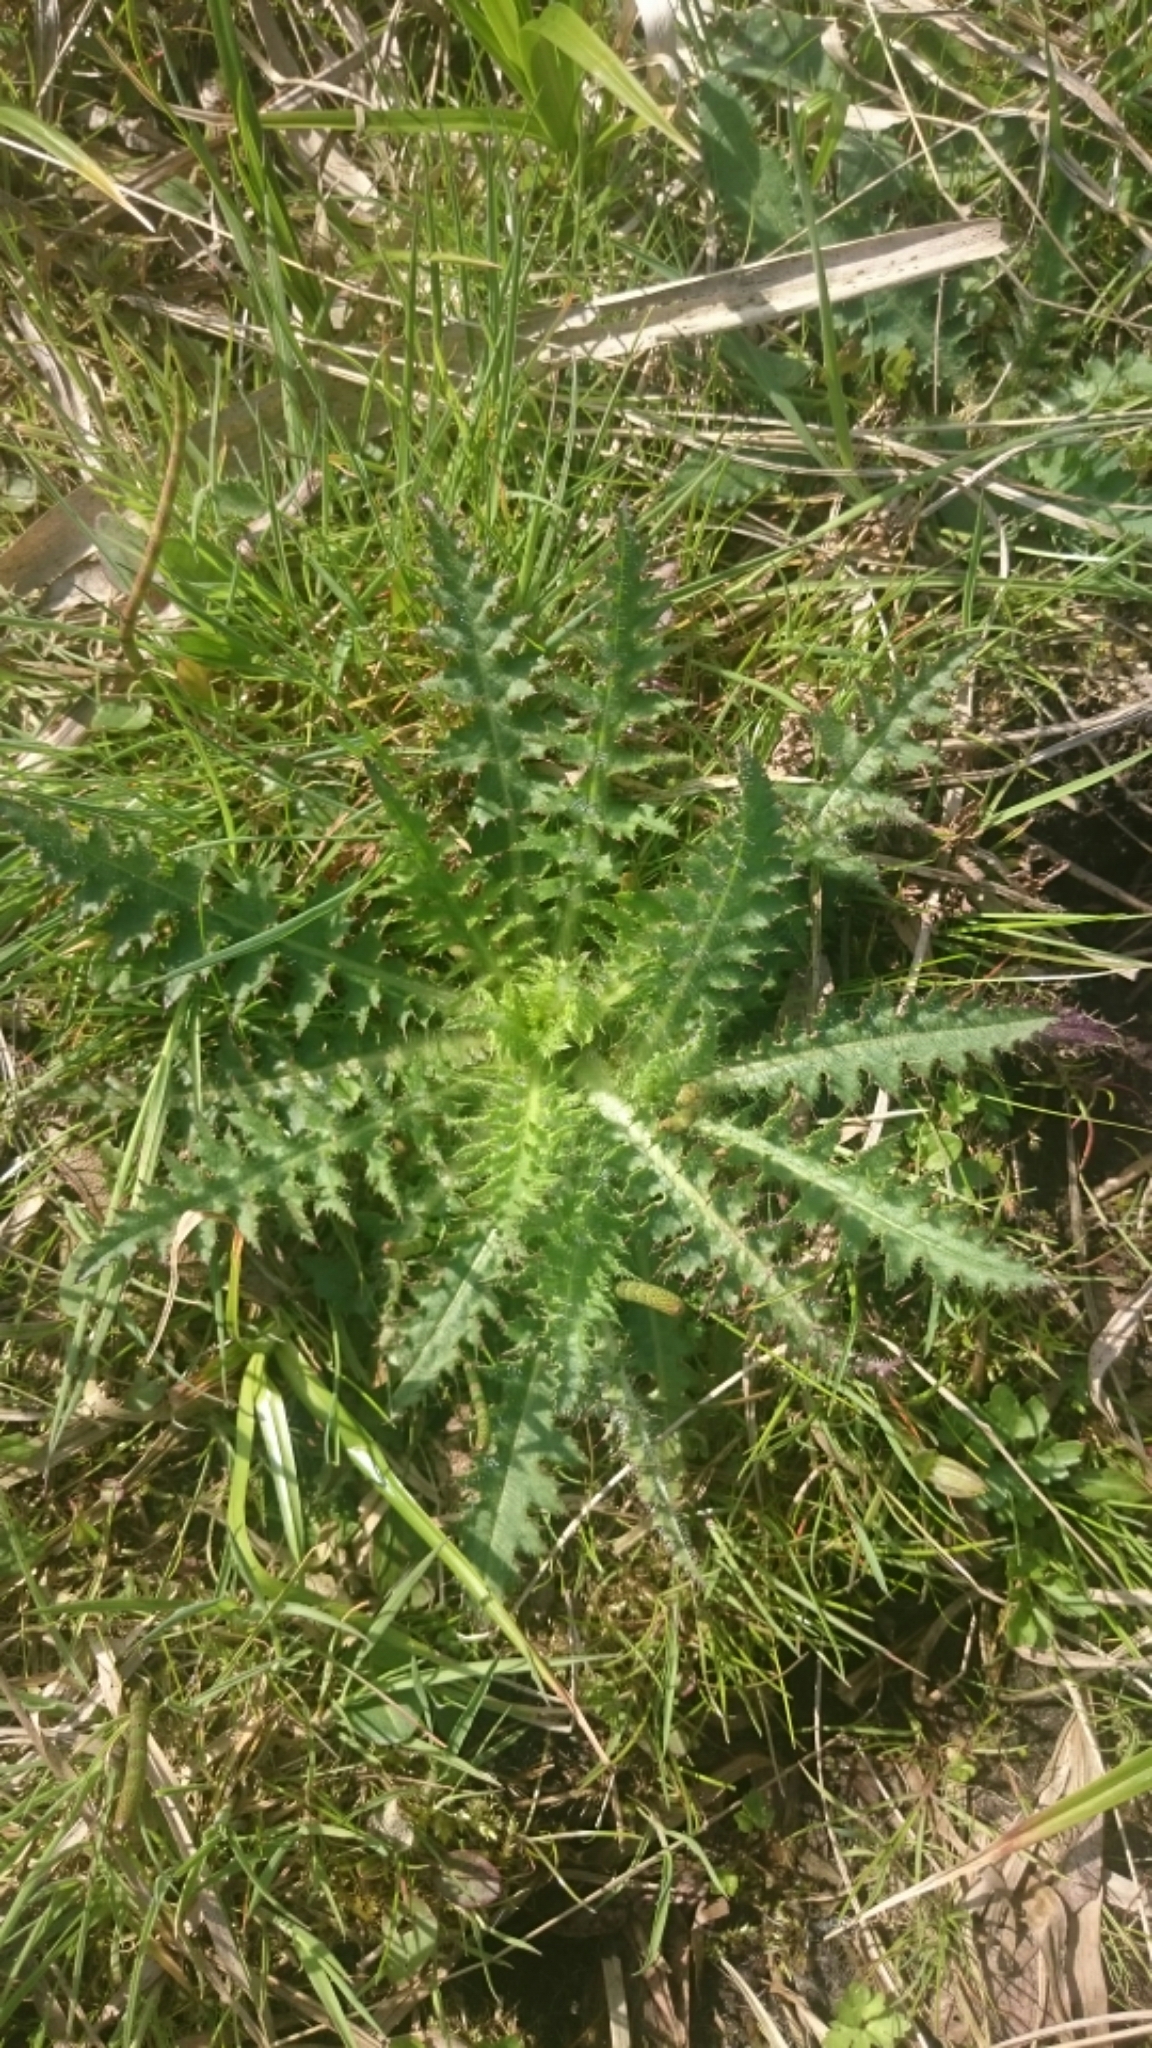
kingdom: Plantae
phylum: Tracheophyta
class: Magnoliopsida
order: Asterales
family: Asteraceae
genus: Cirsium
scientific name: Cirsium palustre
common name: Marsh thistle
